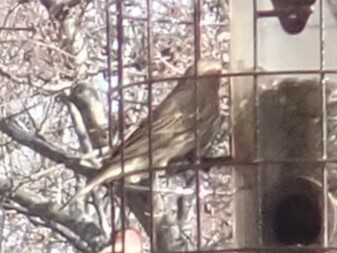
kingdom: Animalia
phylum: Chordata
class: Aves
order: Passeriformes
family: Fringillidae
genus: Haemorhous
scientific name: Haemorhous mexicanus
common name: House finch
